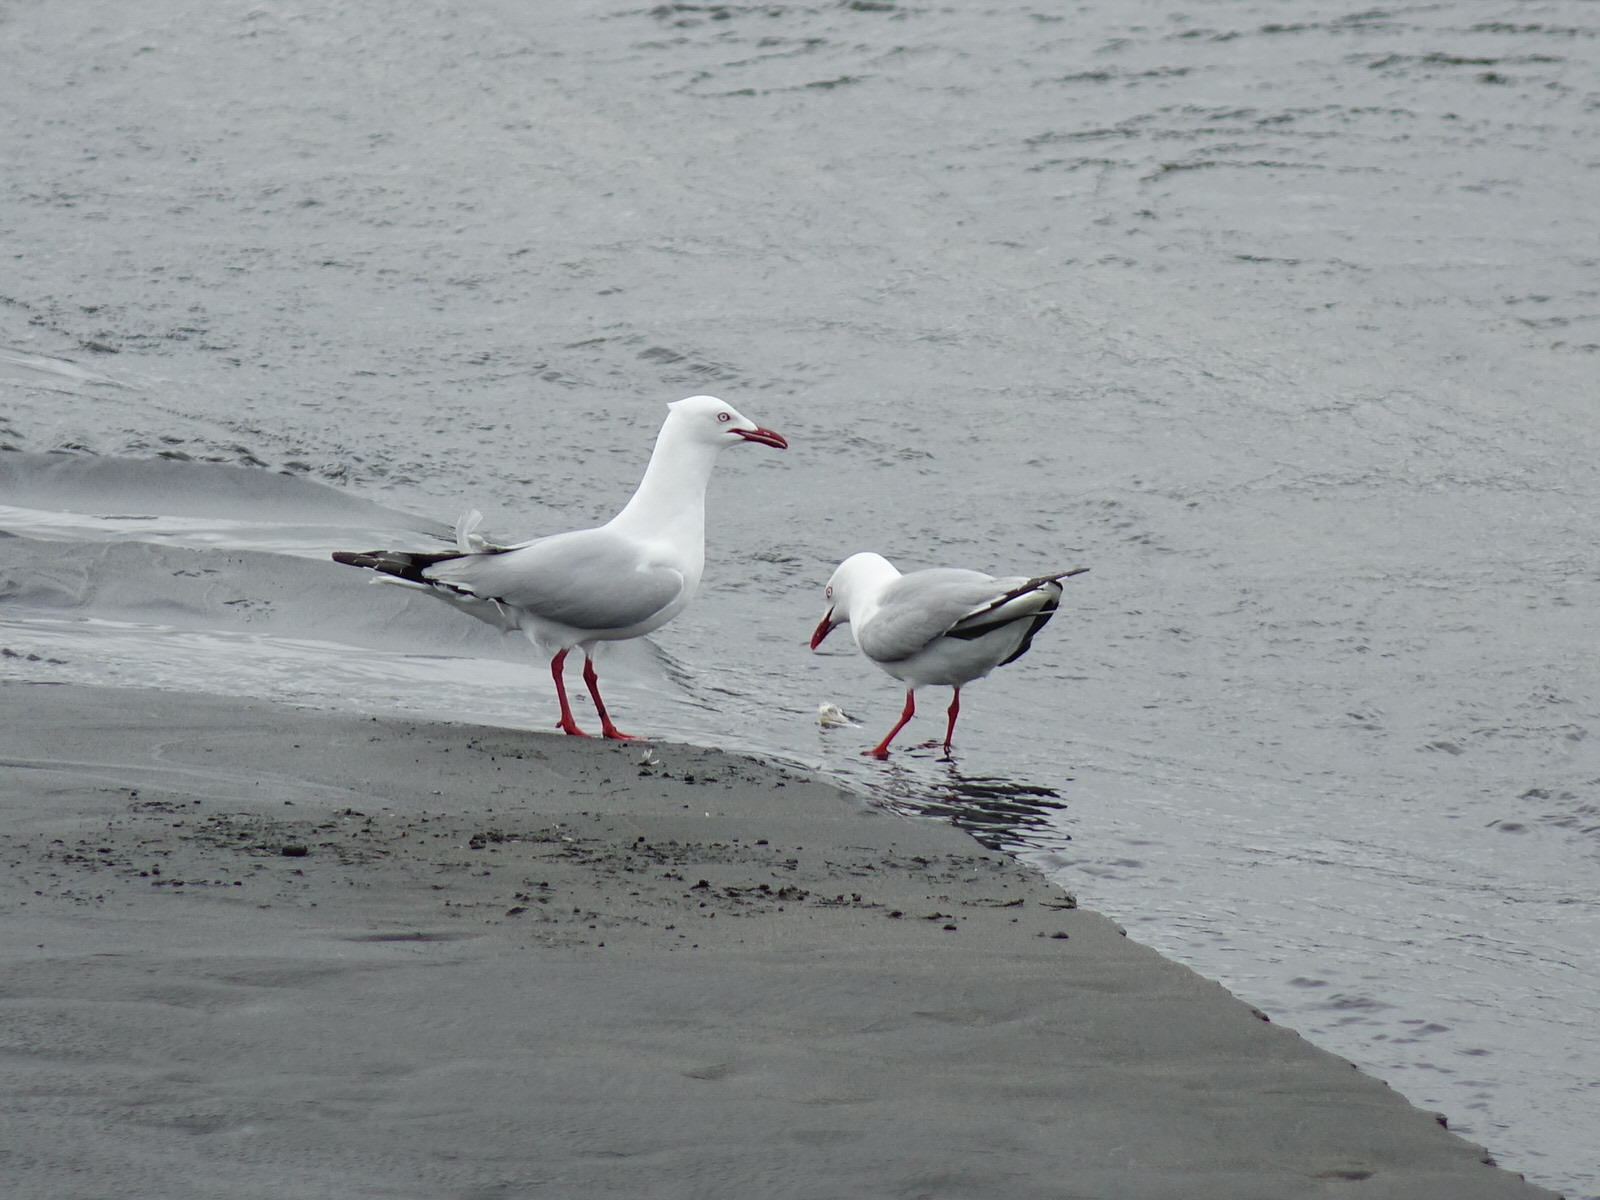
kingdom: Animalia
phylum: Chordata
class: Aves
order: Charadriiformes
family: Laridae
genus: Chroicocephalus
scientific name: Chroicocephalus novaehollandiae
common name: Silver gull
